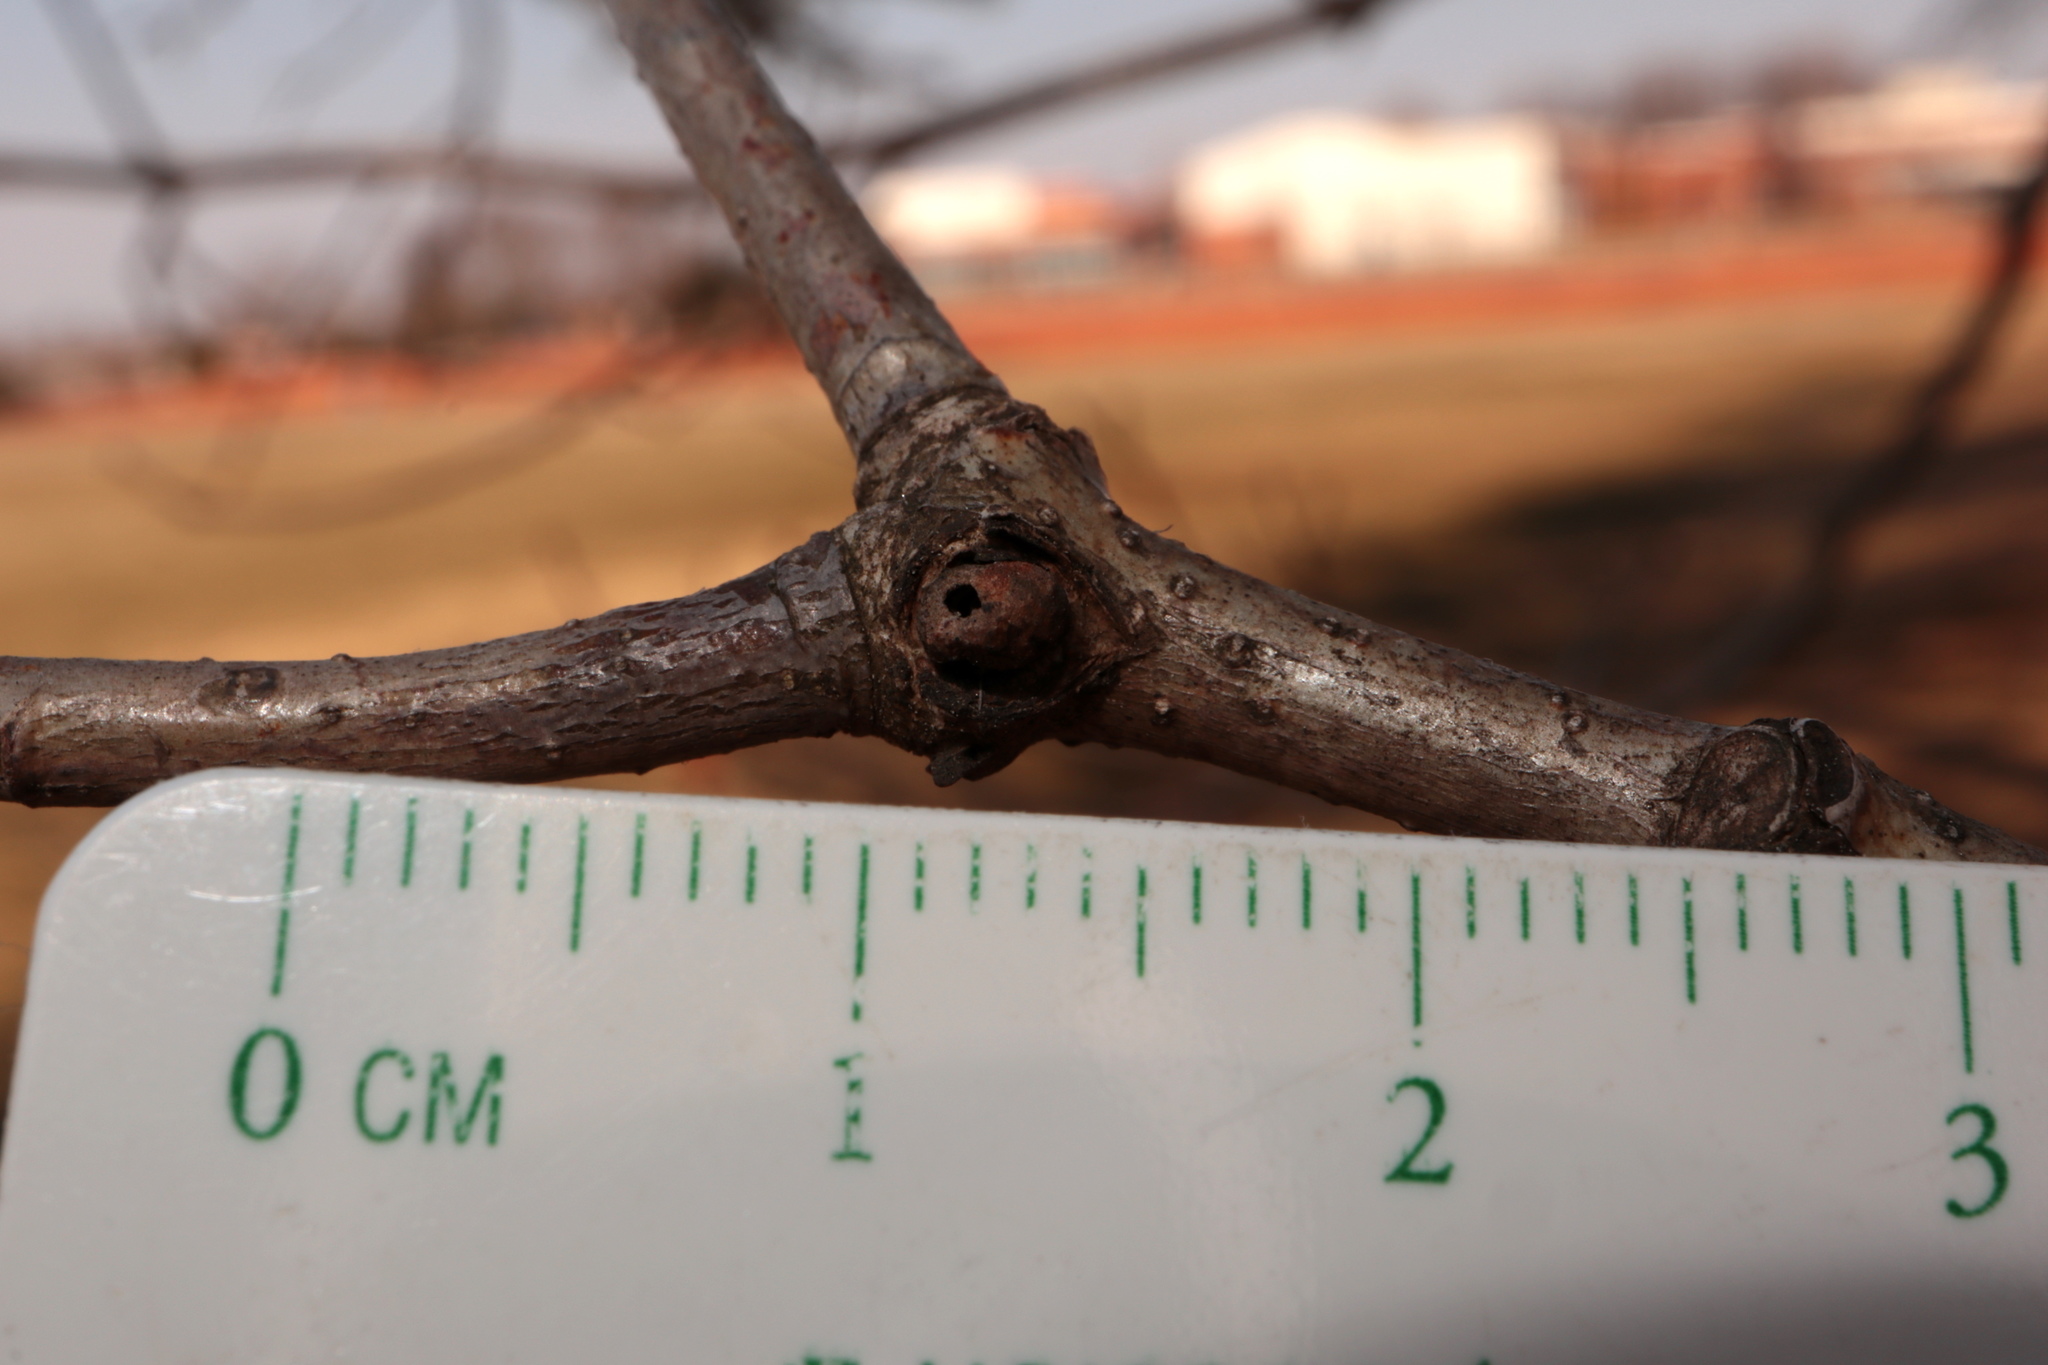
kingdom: Animalia
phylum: Arthropoda
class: Insecta
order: Hymenoptera
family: Cynipidae
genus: Andricus
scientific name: Andricus
